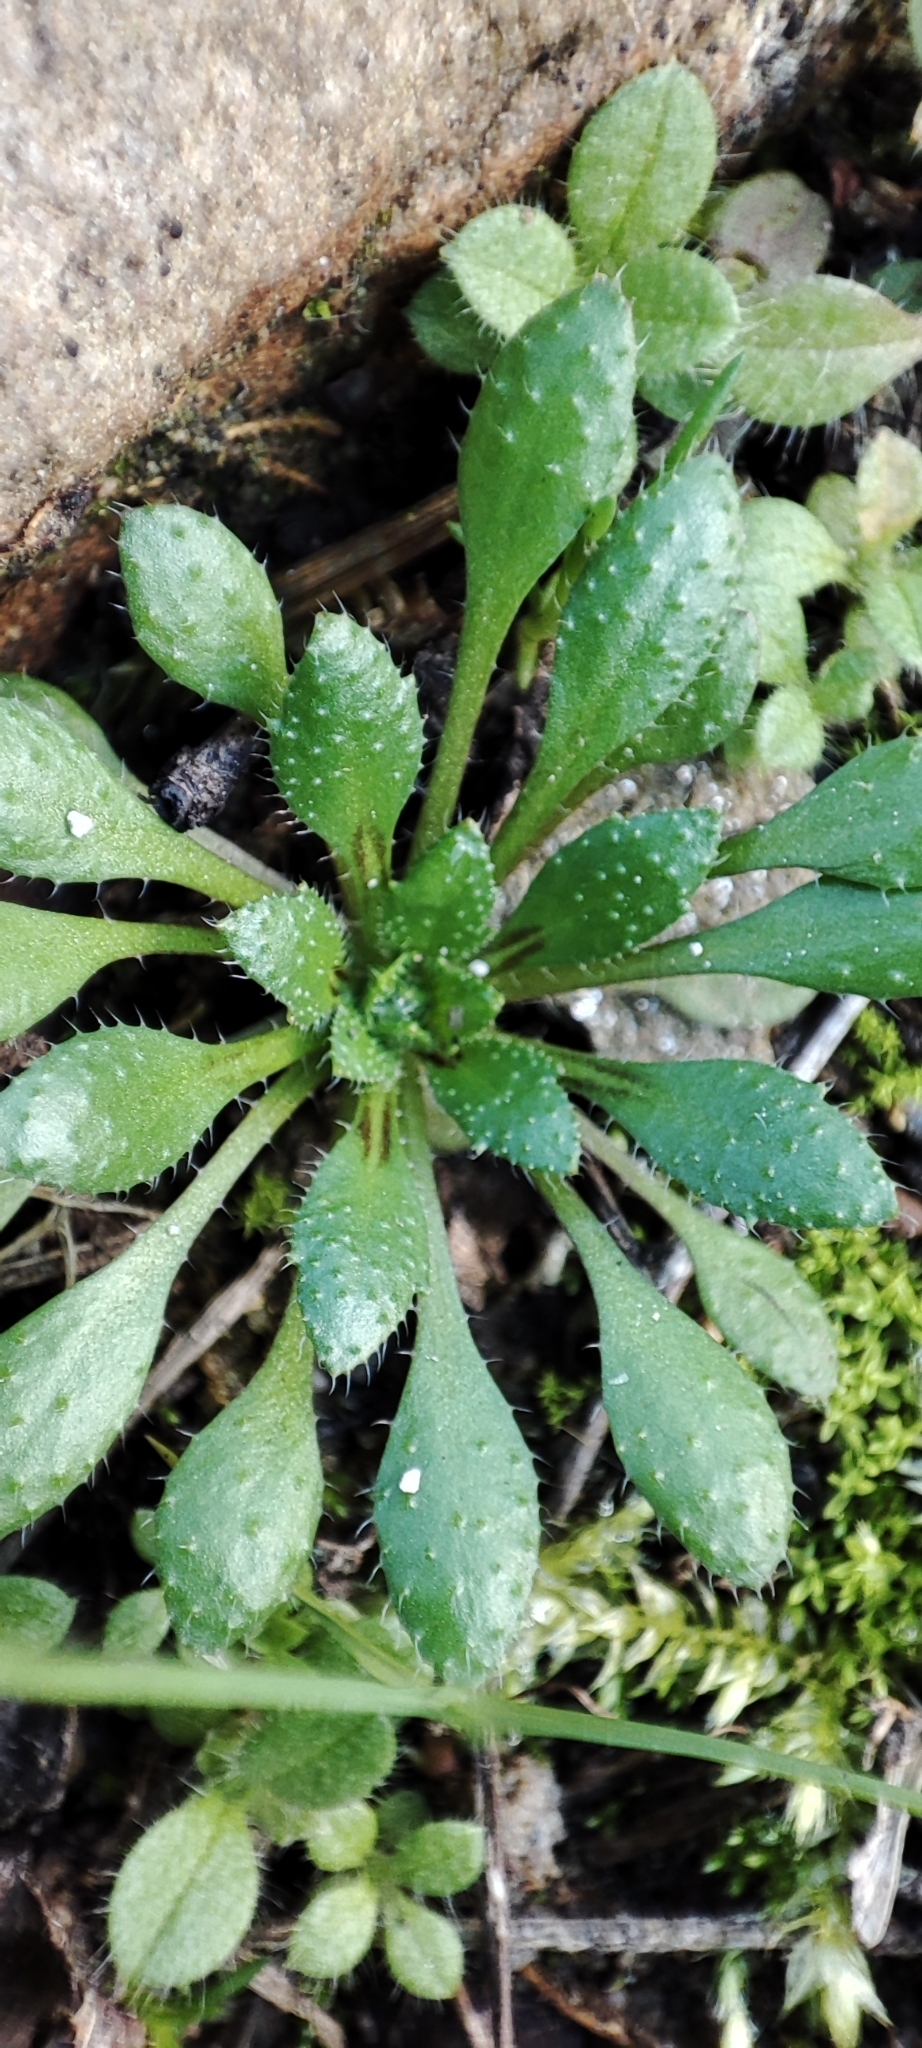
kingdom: Plantae
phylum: Tracheophyta
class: Magnoliopsida
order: Brassicales
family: Brassicaceae
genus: Draba
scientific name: Draba verna
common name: Spring draba
